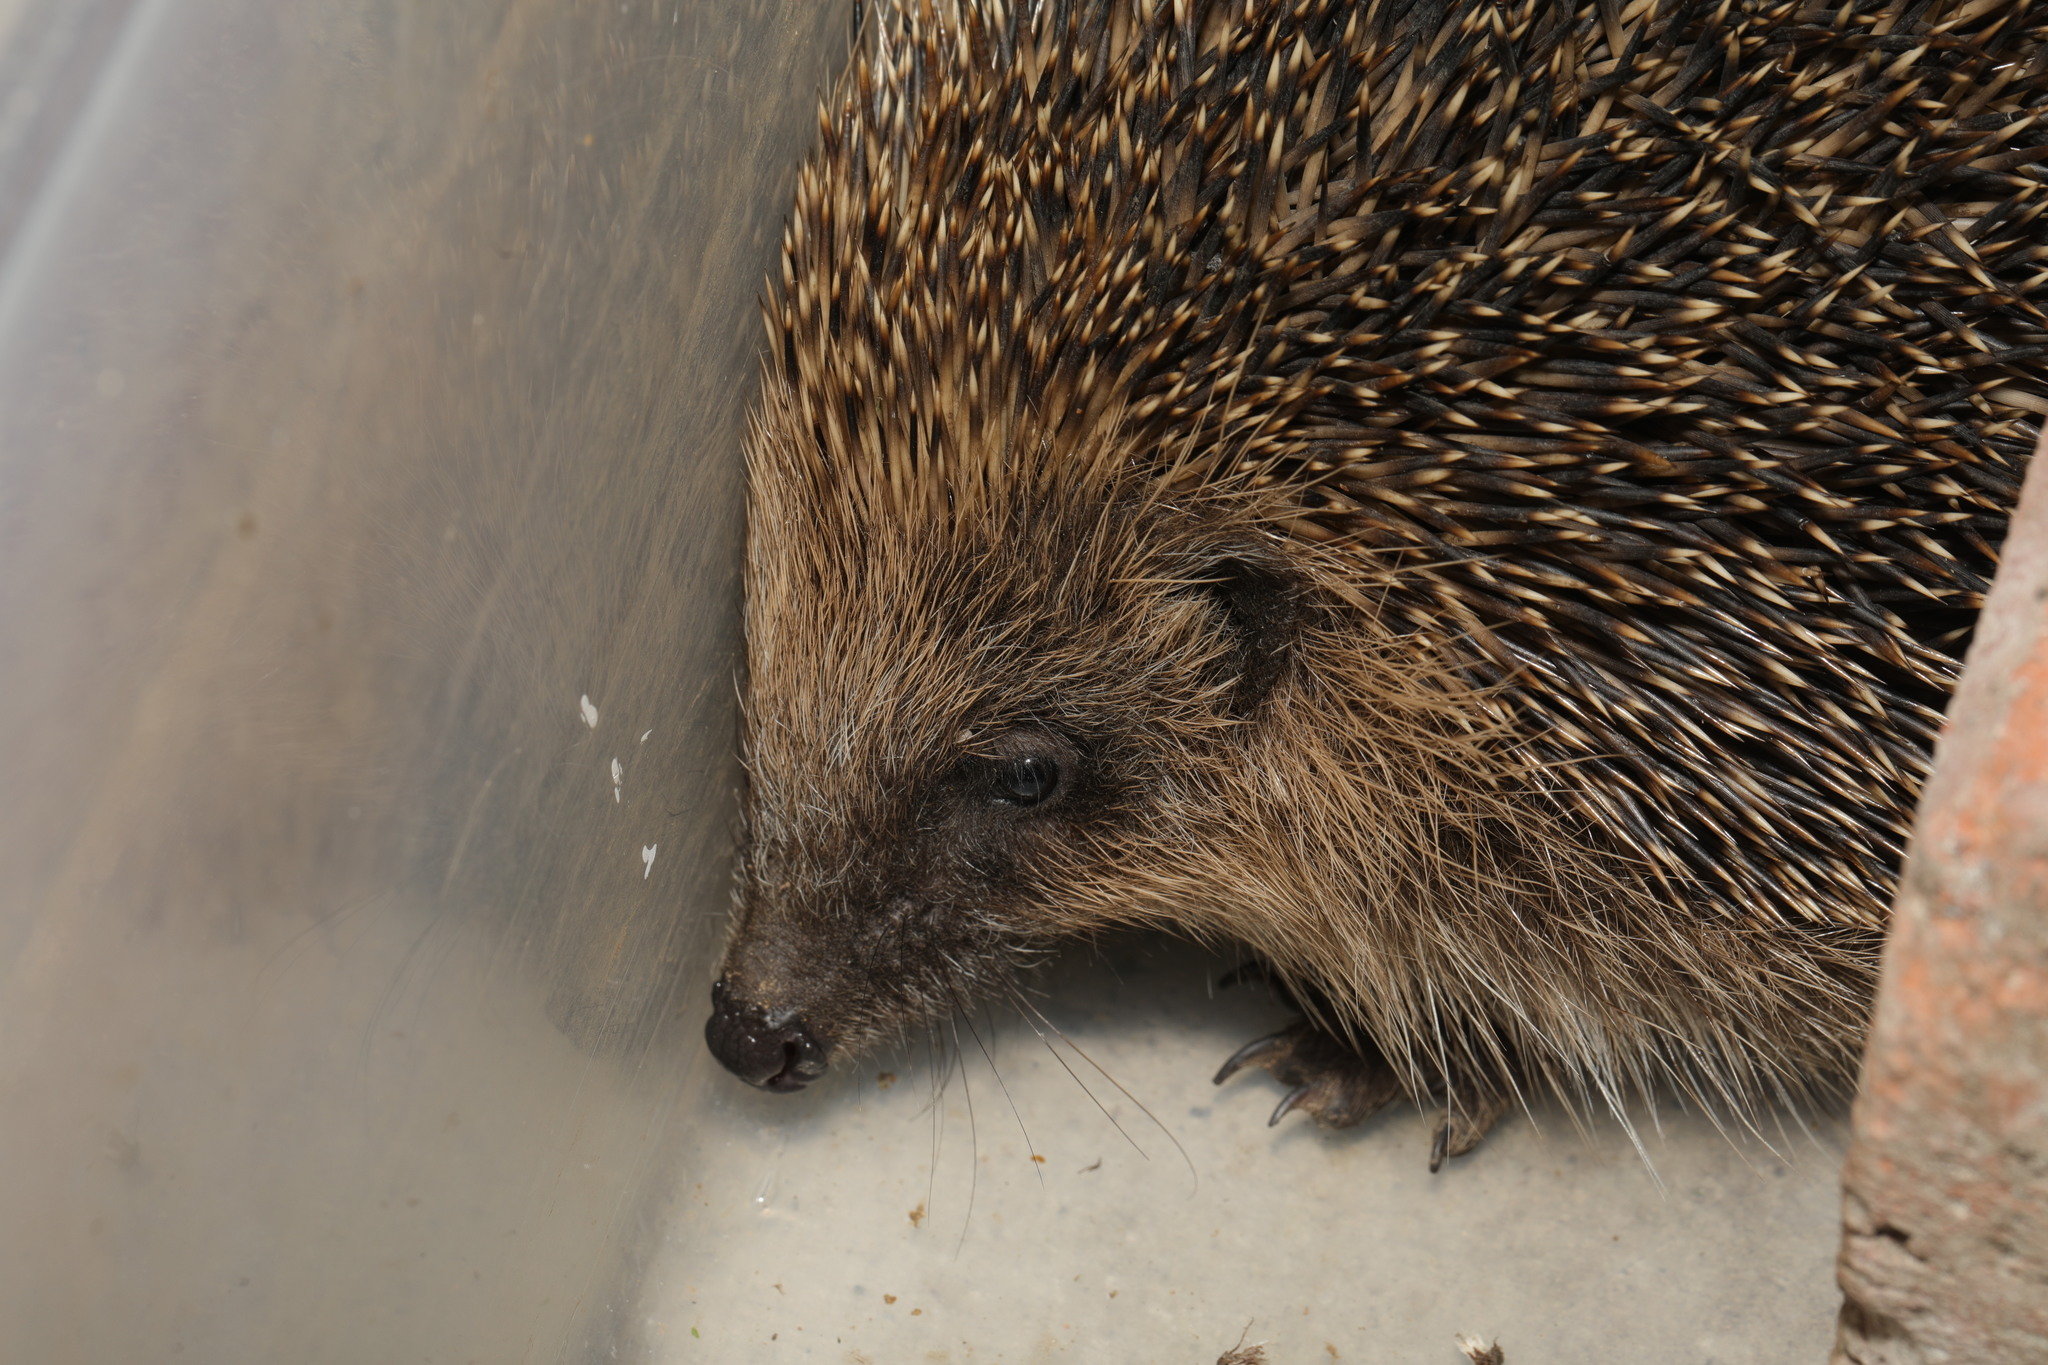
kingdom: Animalia
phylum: Chordata
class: Mammalia
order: Erinaceomorpha
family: Erinaceidae
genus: Erinaceus
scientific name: Erinaceus europaeus
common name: West european hedgehog
